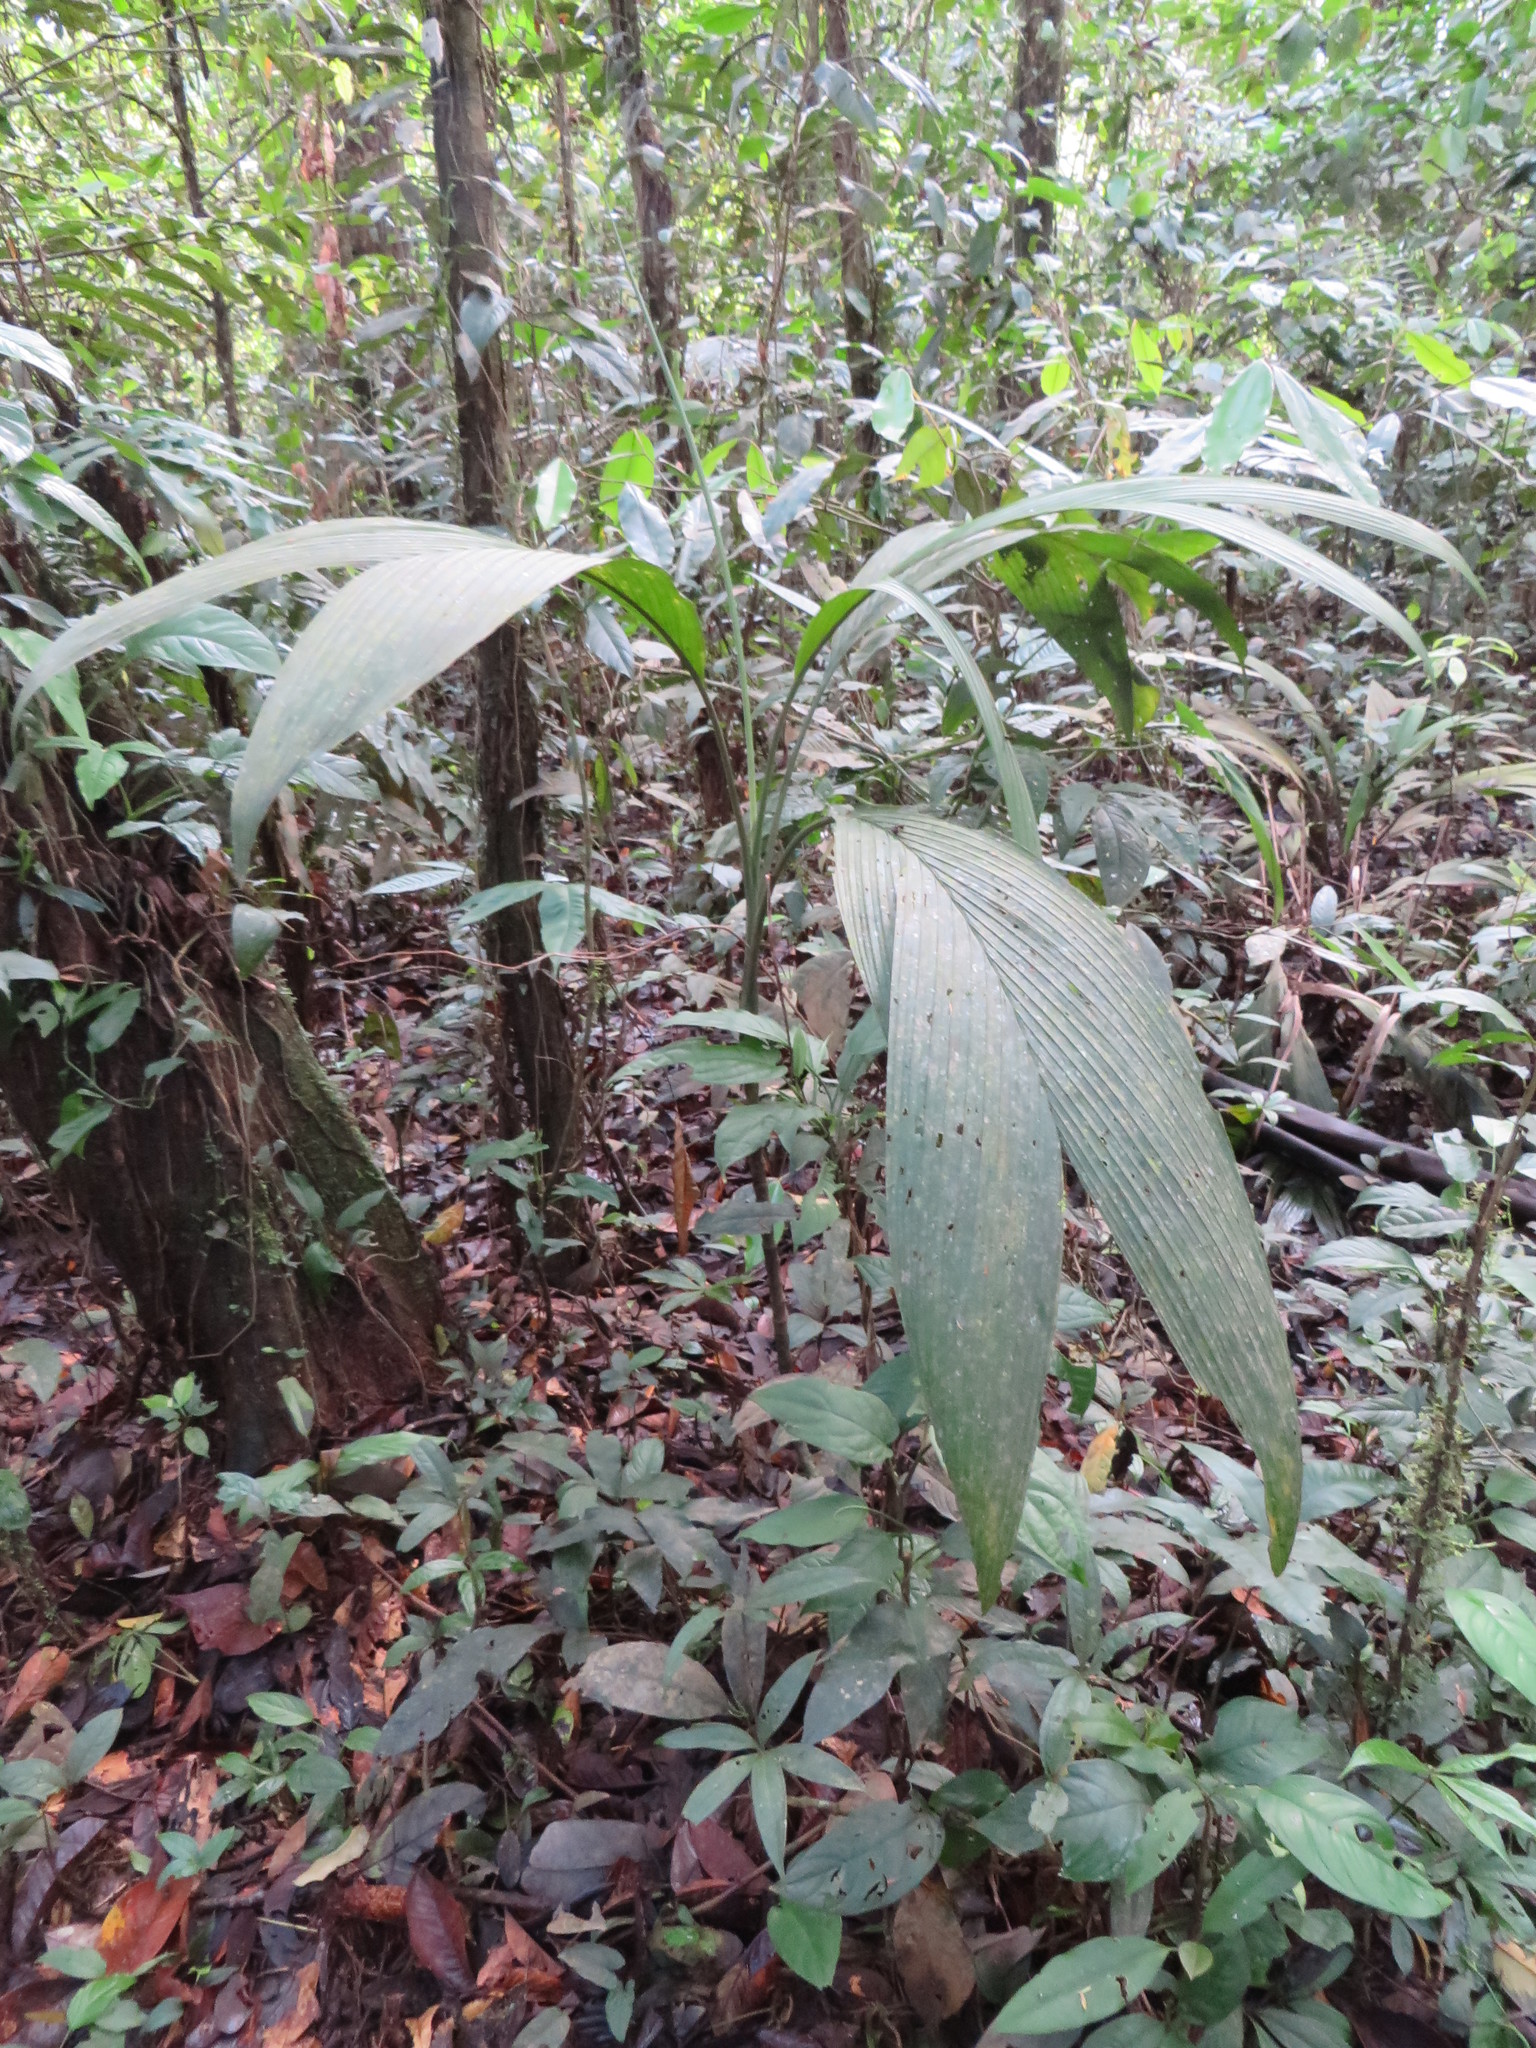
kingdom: Plantae
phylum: Tracheophyta
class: Liliopsida
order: Arecales
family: Arecaceae
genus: Chamaedorea
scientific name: Chamaedorea pauciflora
